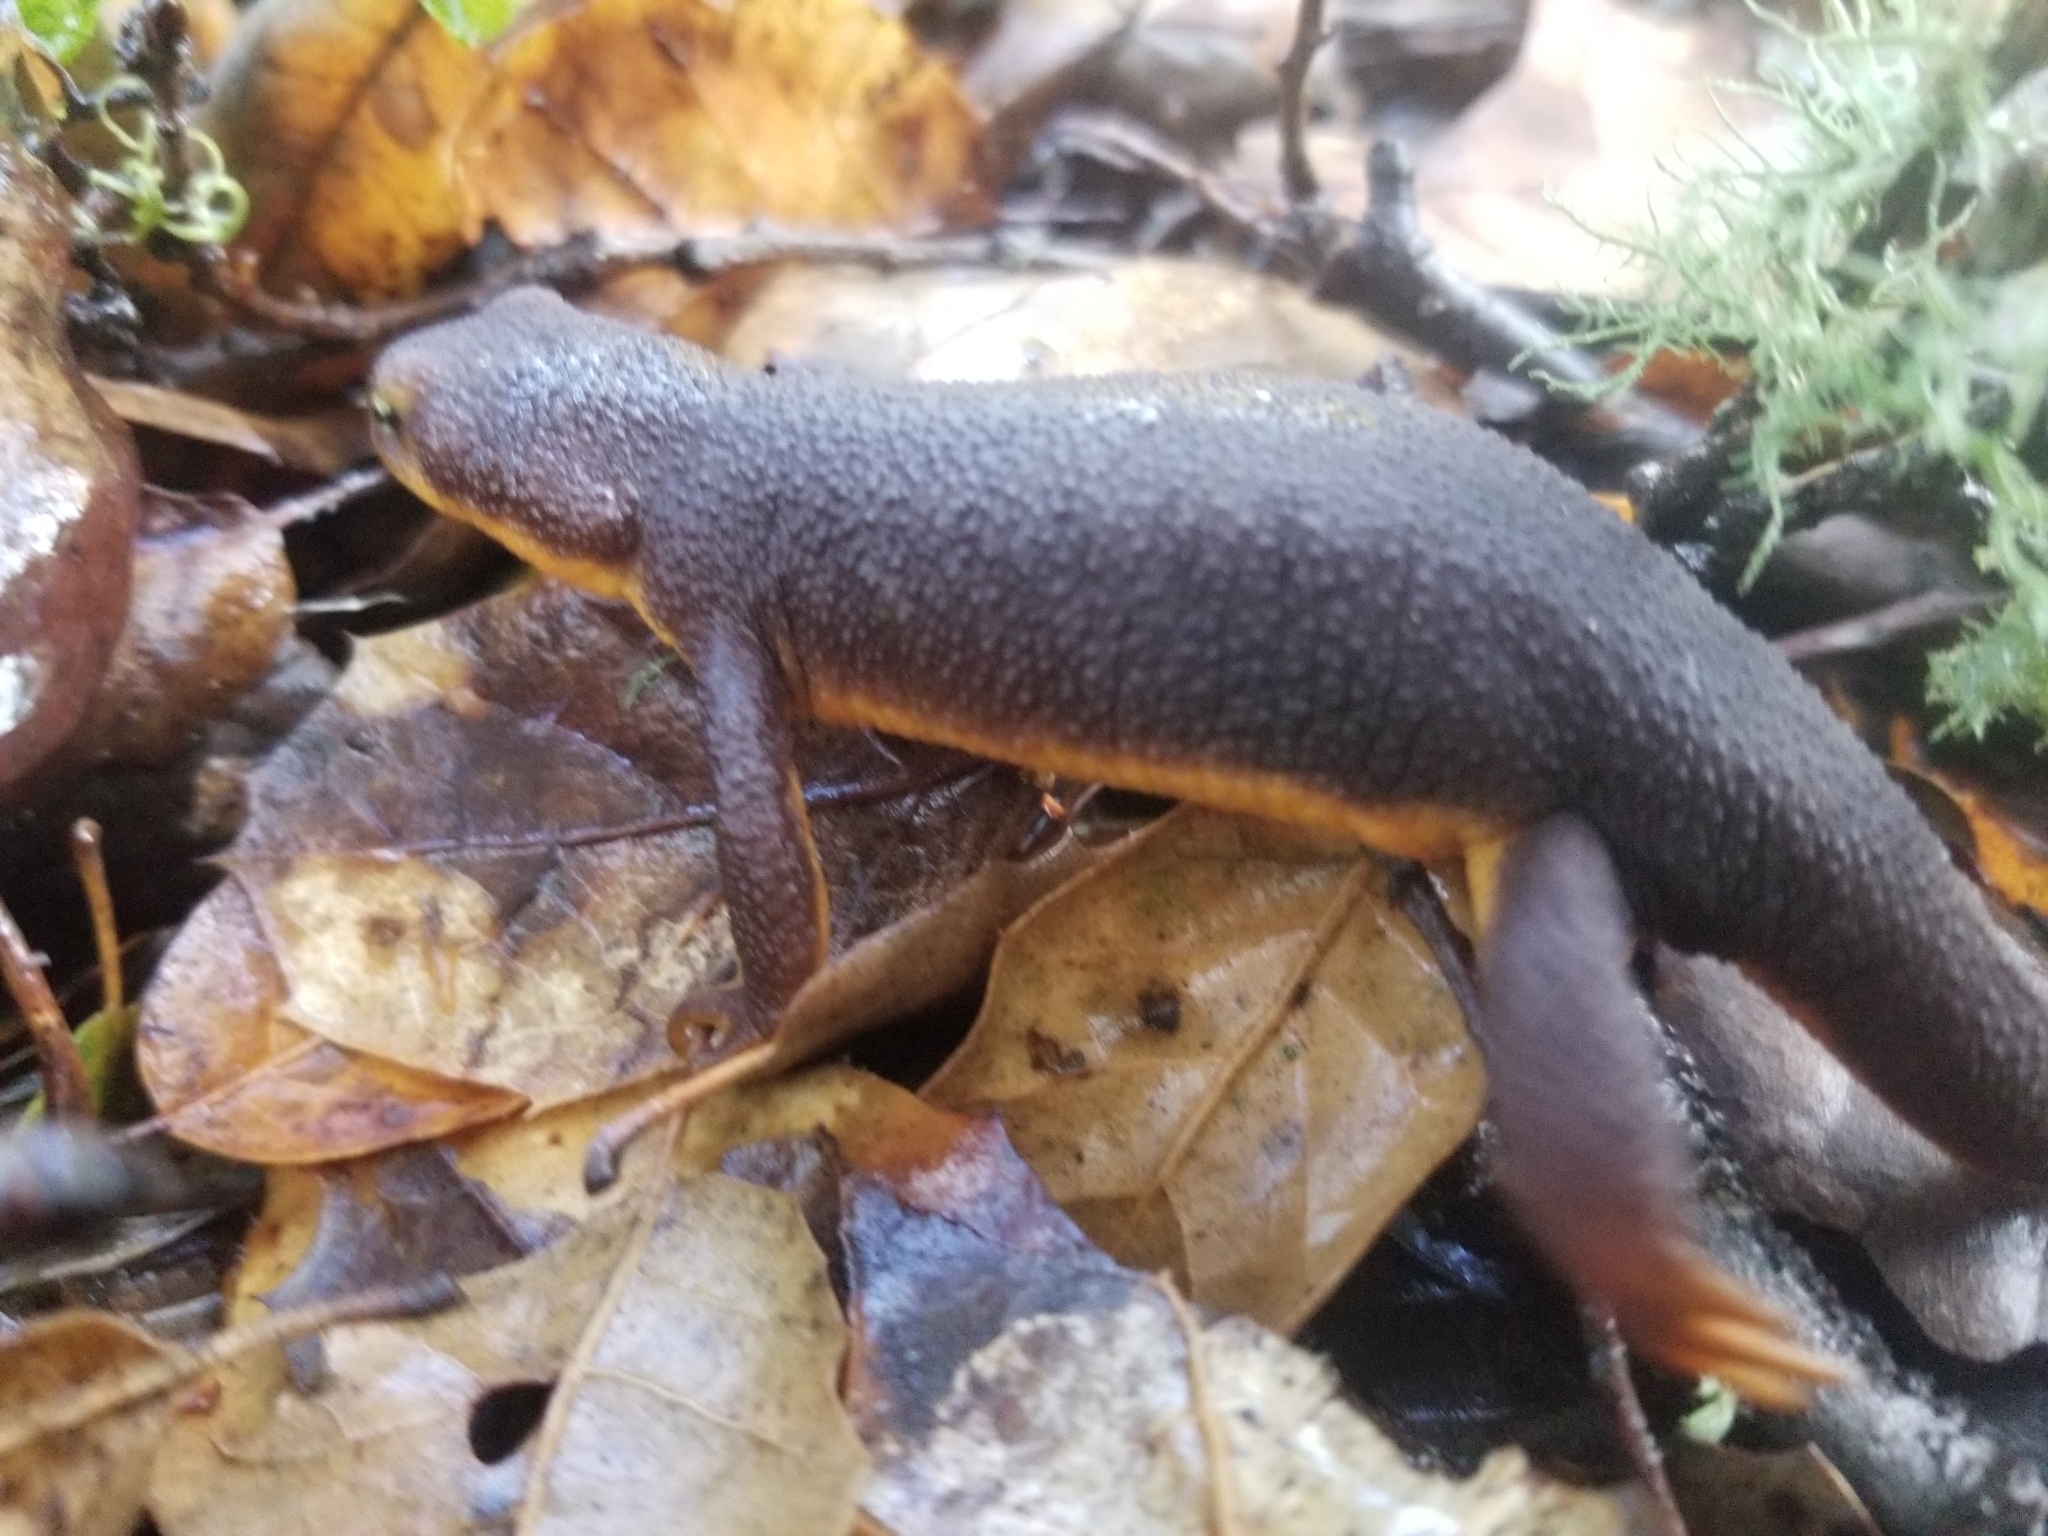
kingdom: Animalia
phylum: Chordata
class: Amphibia
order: Caudata
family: Salamandridae
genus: Taricha
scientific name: Taricha granulosa
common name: Roughskin newt
